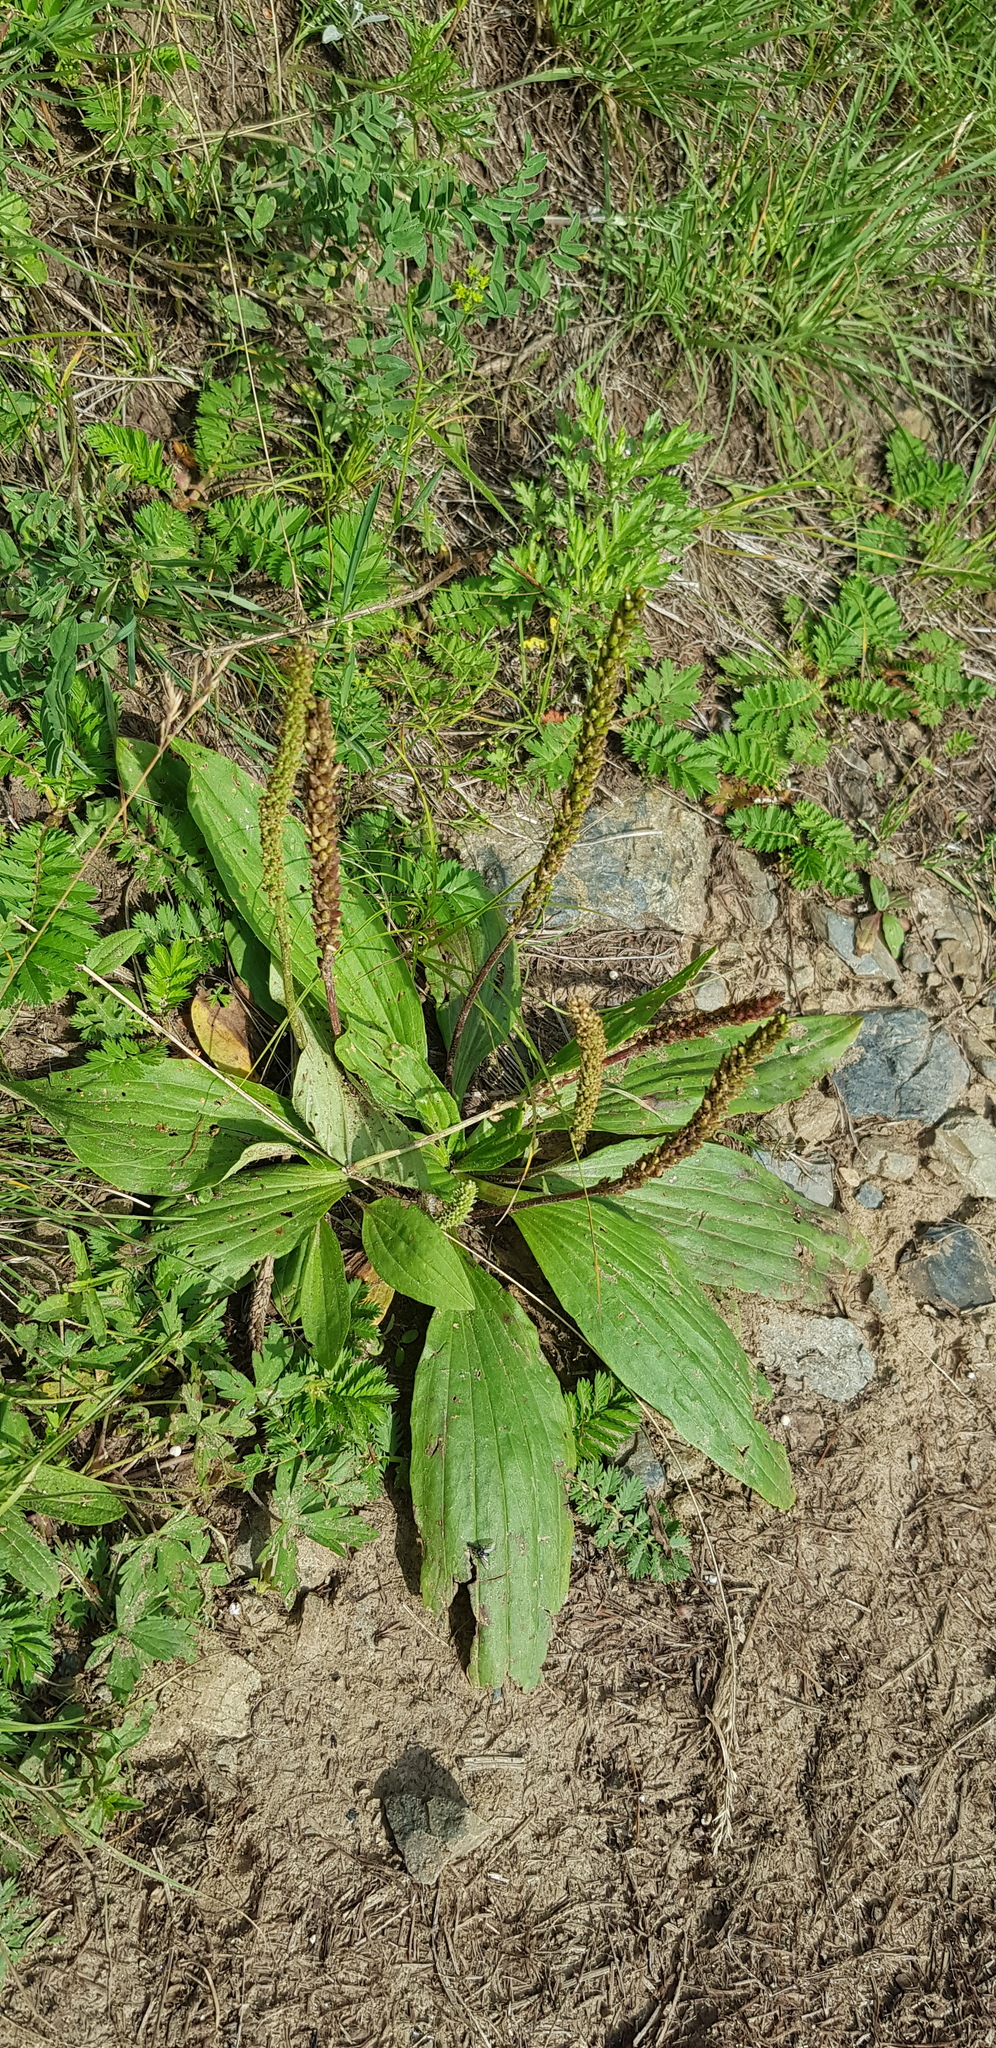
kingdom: Plantae
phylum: Tracheophyta
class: Magnoliopsida
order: Lamiales
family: Plantaginaceae
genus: Plantago
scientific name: Plantago depressa
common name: Depressed plantain
